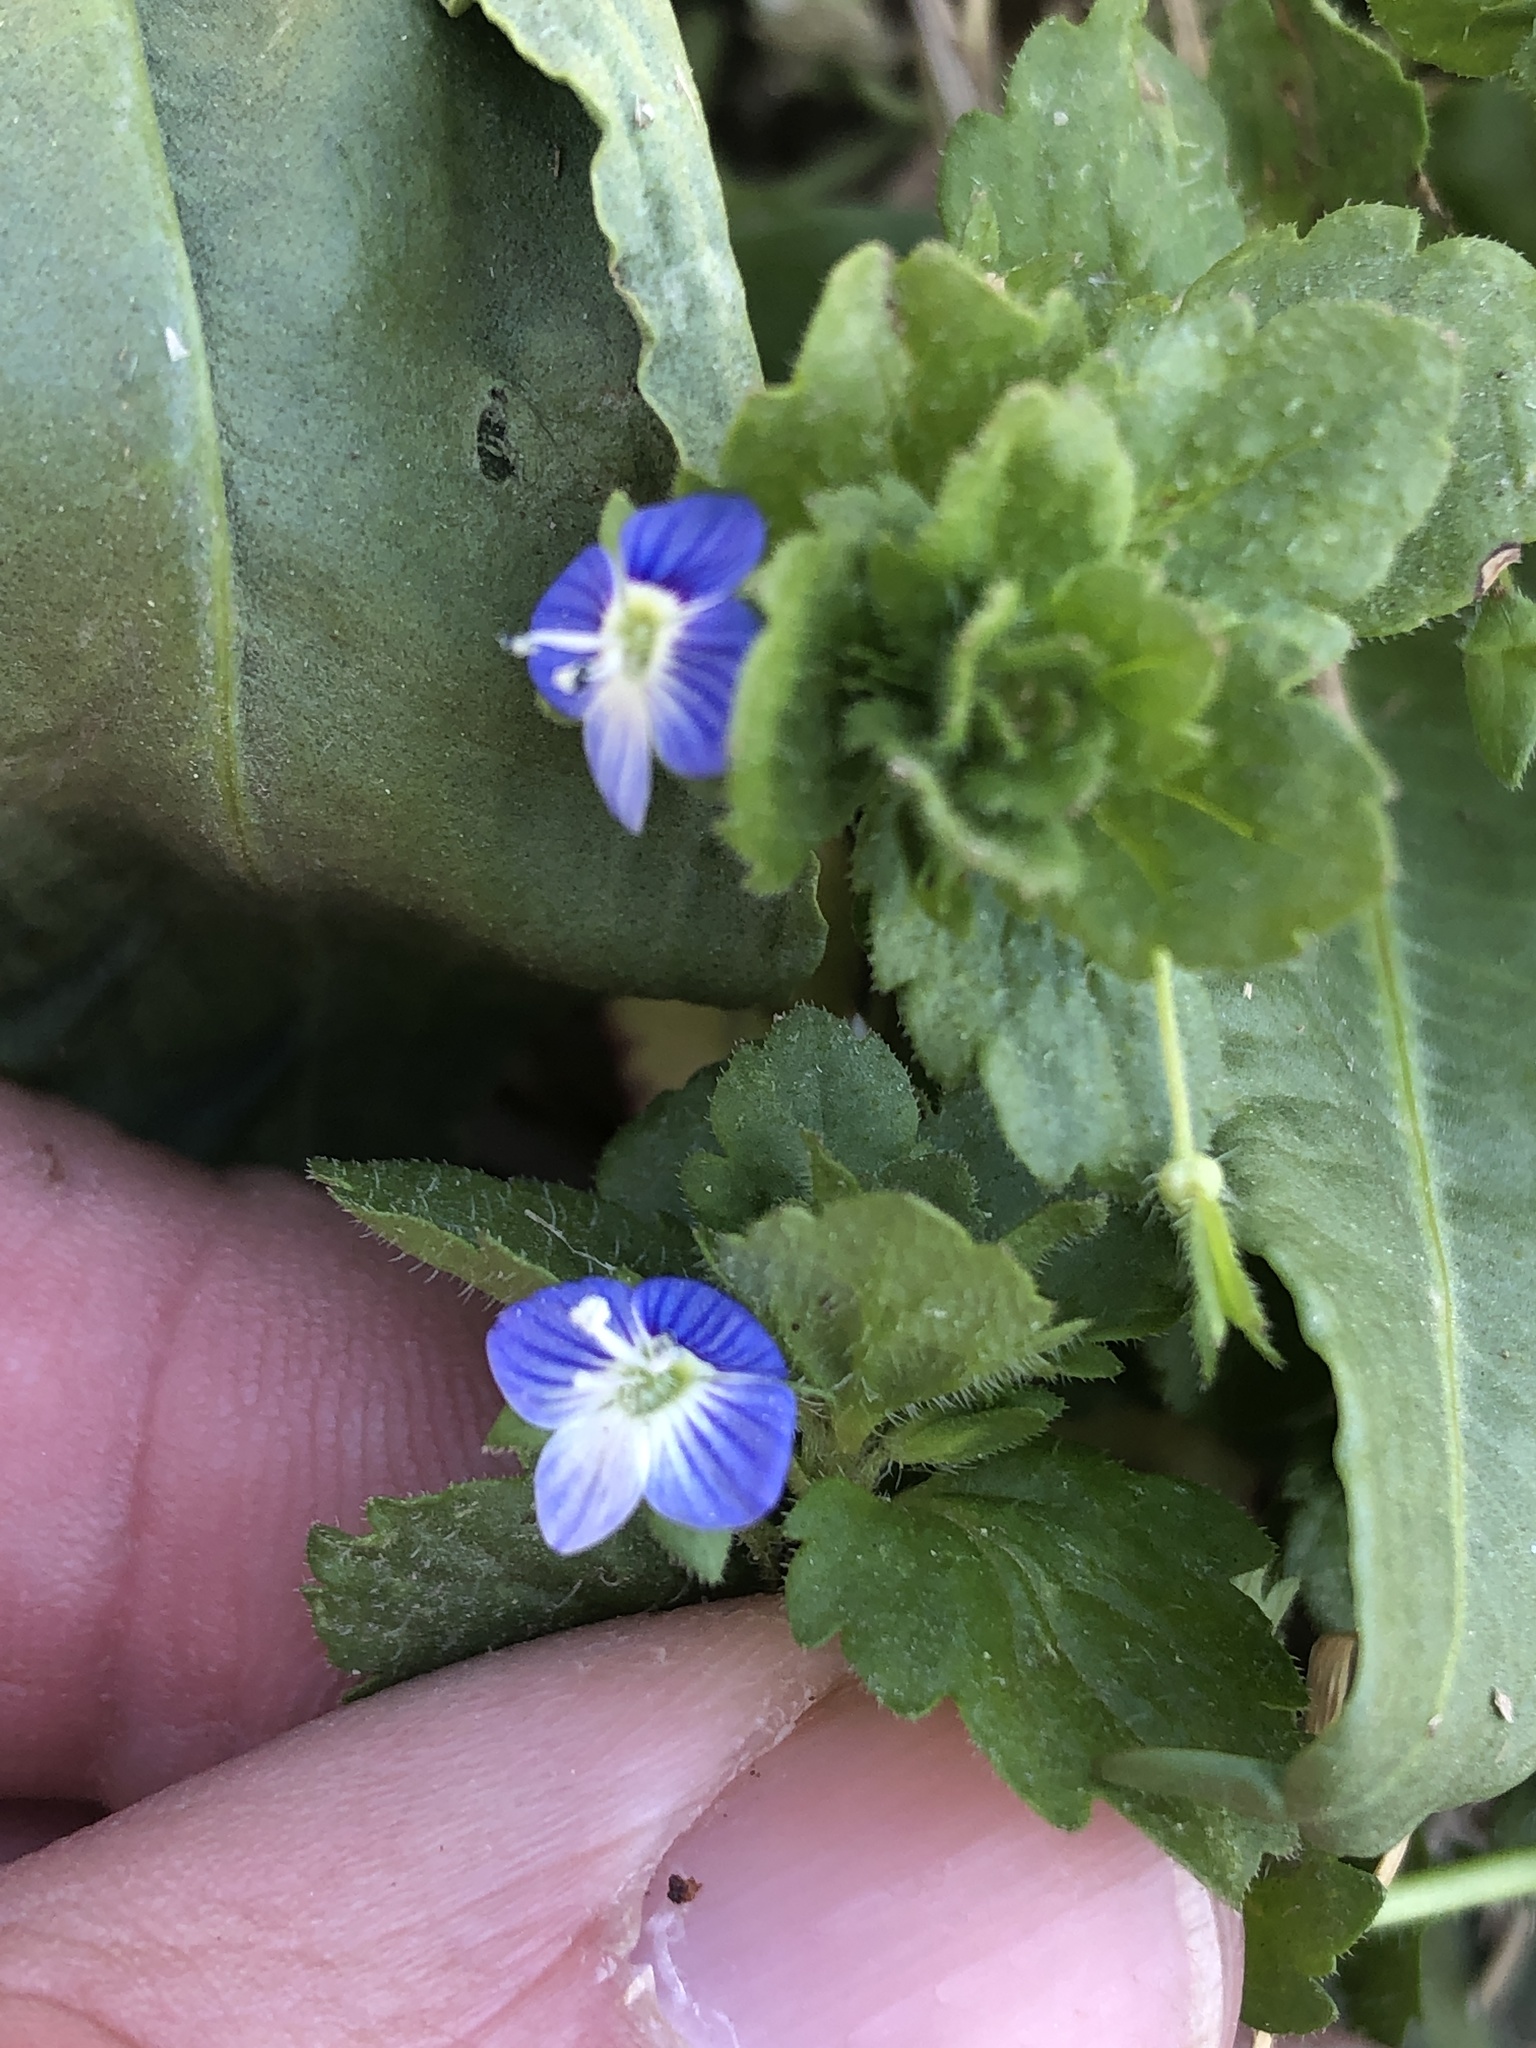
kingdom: Plantae
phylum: Tracheophyta
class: Magnoliopsida
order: Lamiales
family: Plantaginaceae
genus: Veronica
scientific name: Veronica persica
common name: Common field-speedwell
